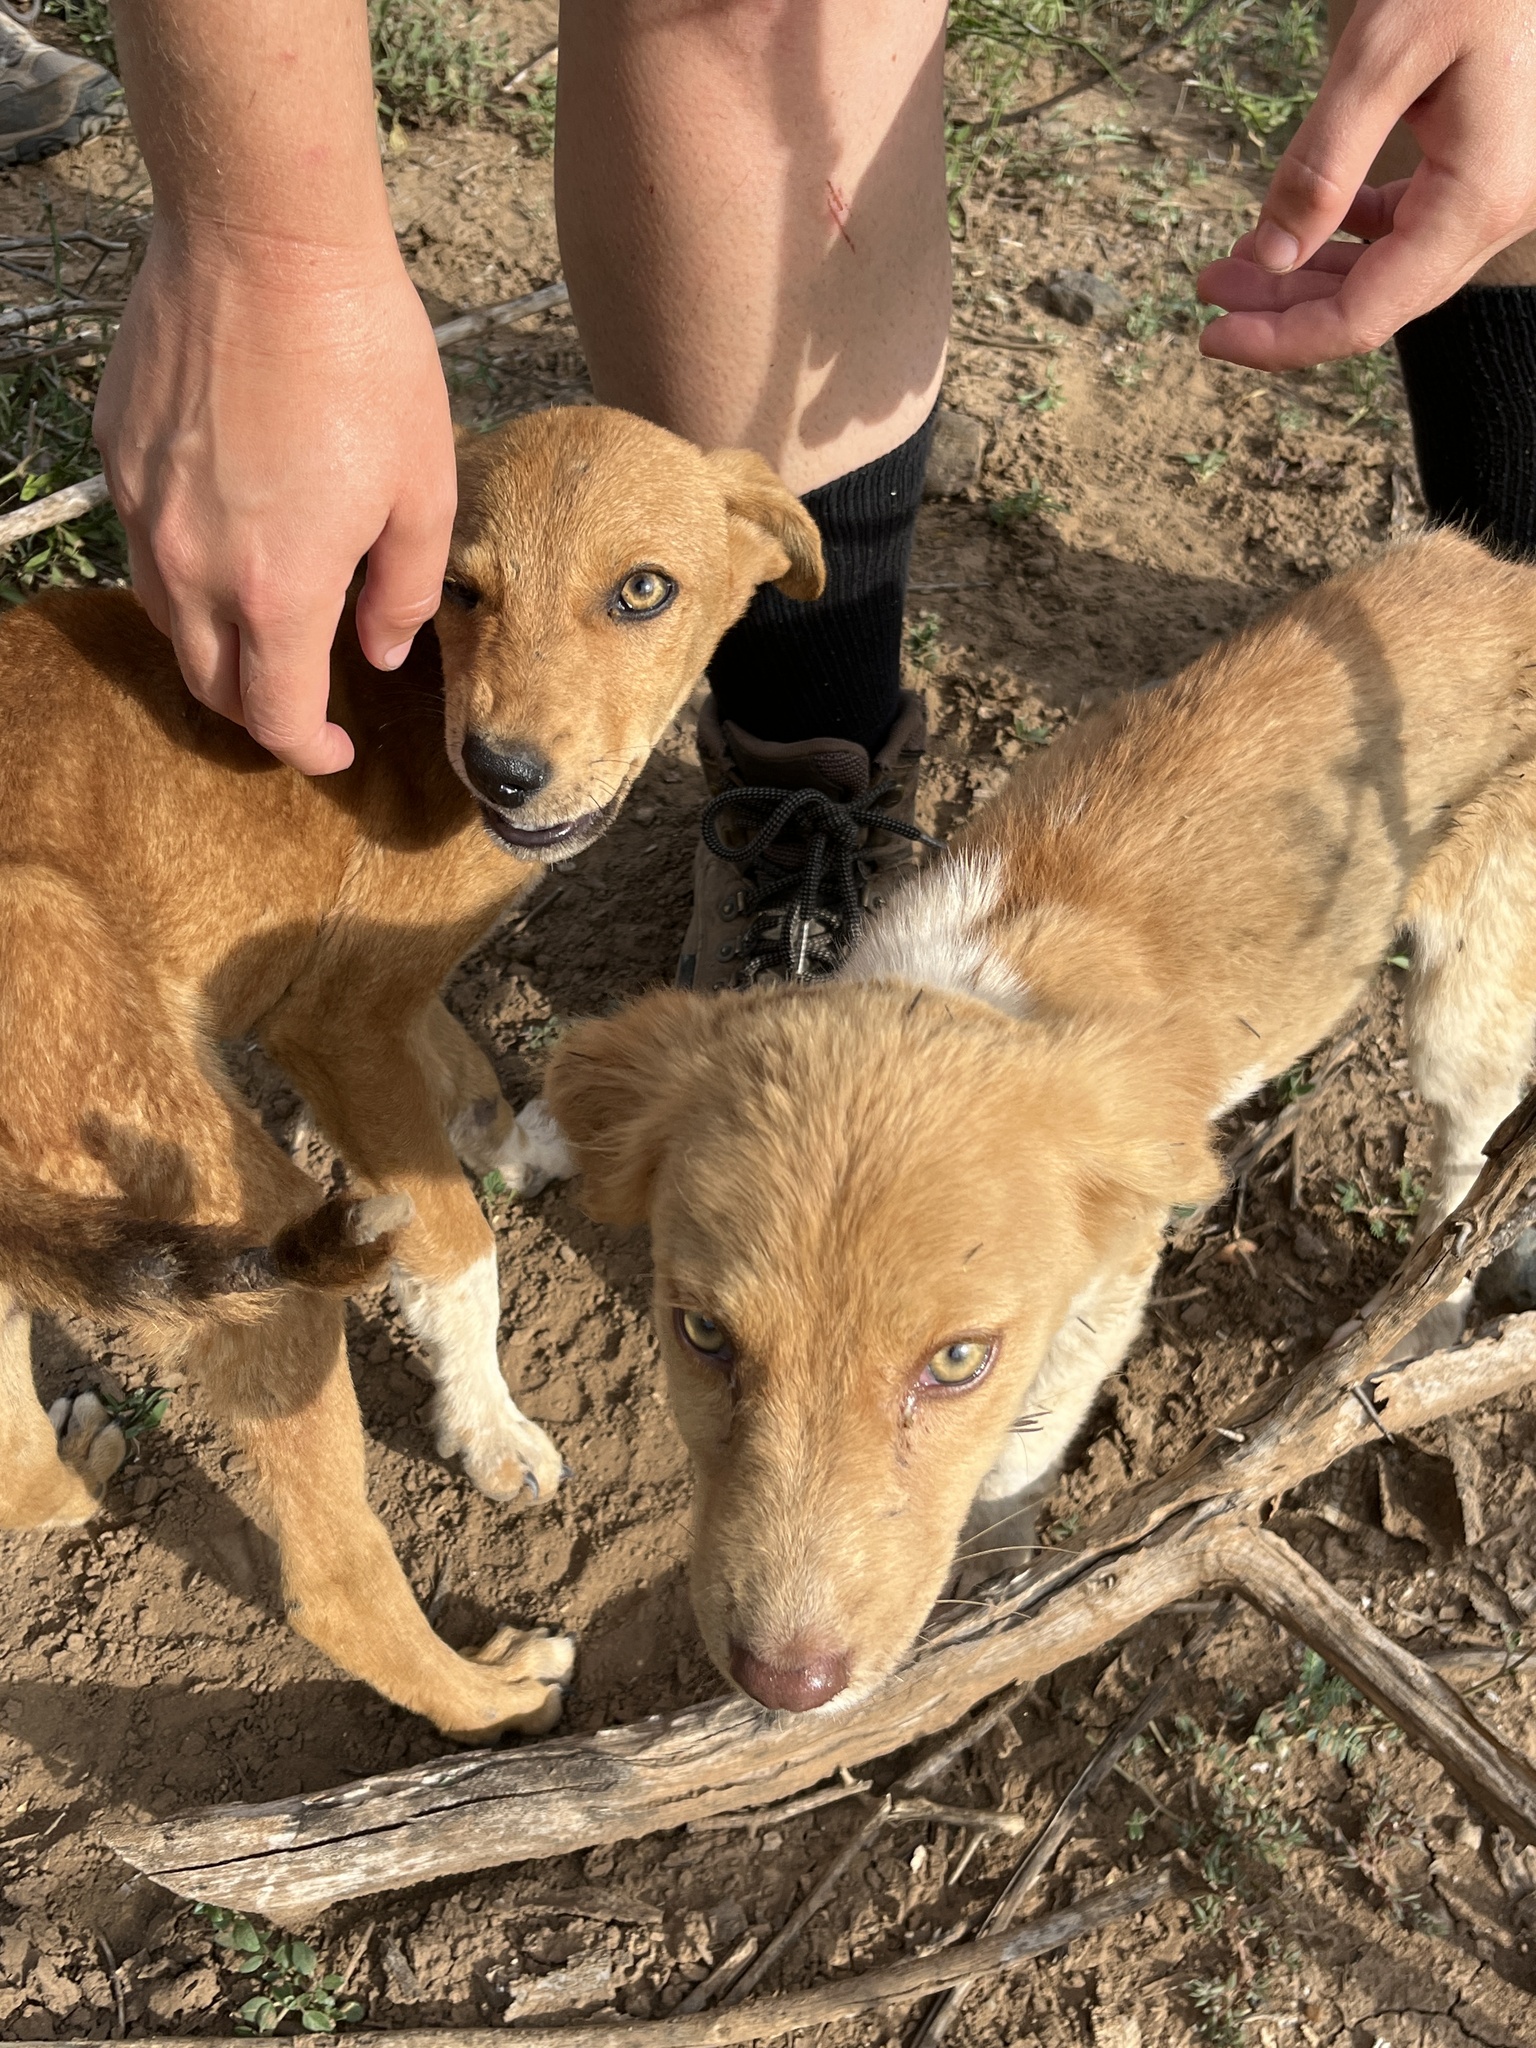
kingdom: Animalia
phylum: Chordata
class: Mammalia
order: Carnivora
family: Canidae
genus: Canis
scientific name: Canis lupus
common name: Gray wolf
